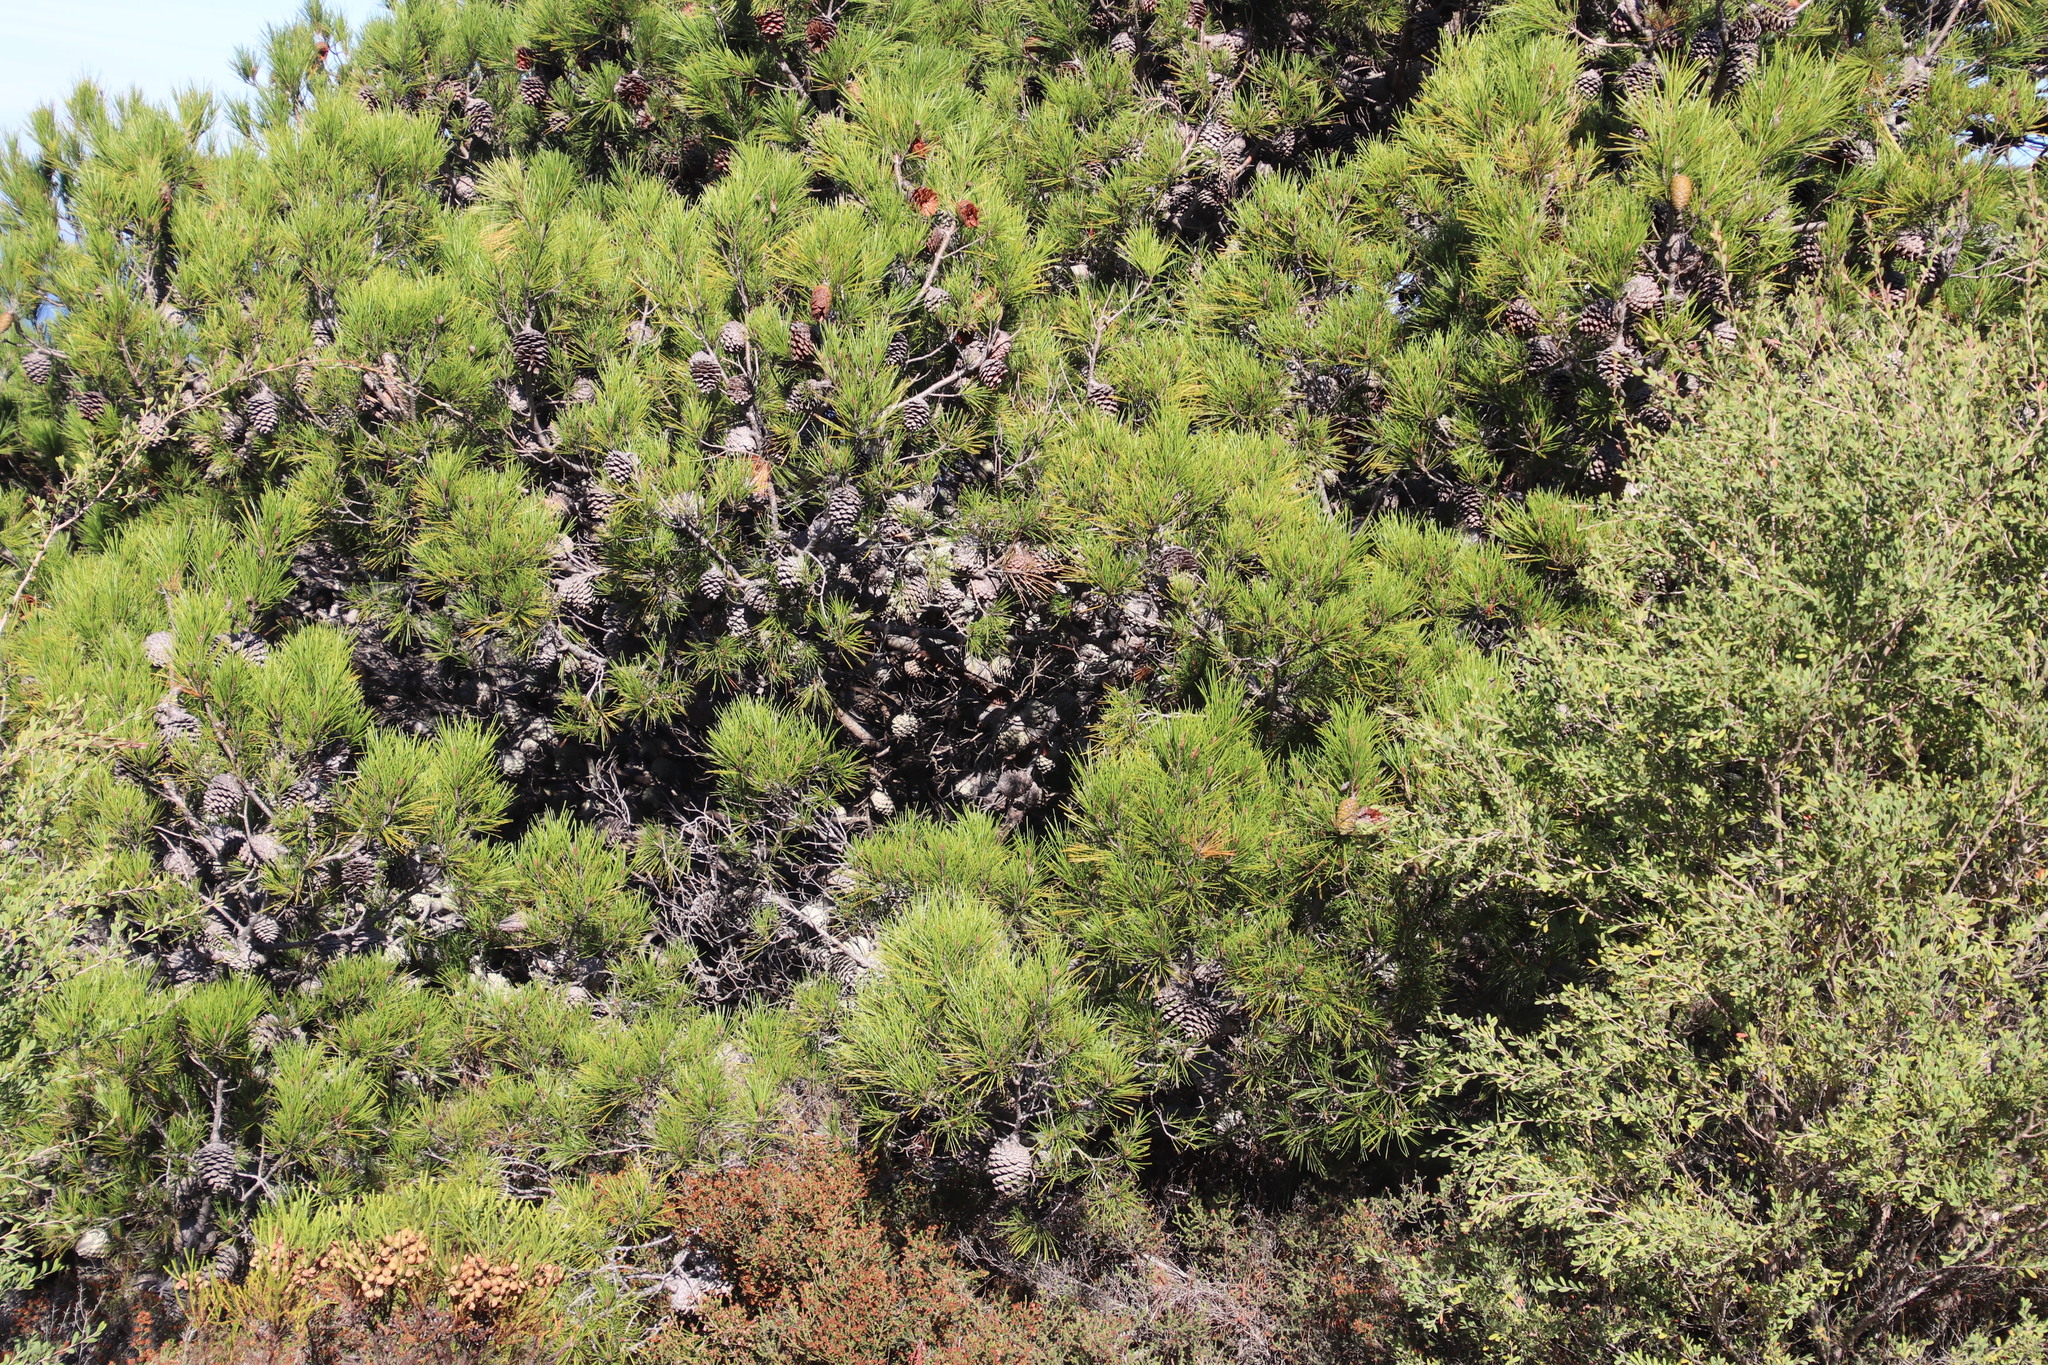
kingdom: Plantae
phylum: Tracheophyta
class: Pinopsida
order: Pinales
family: Pinaceae
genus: Pinus
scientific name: Pinus halepensis
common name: Aleppo pine
